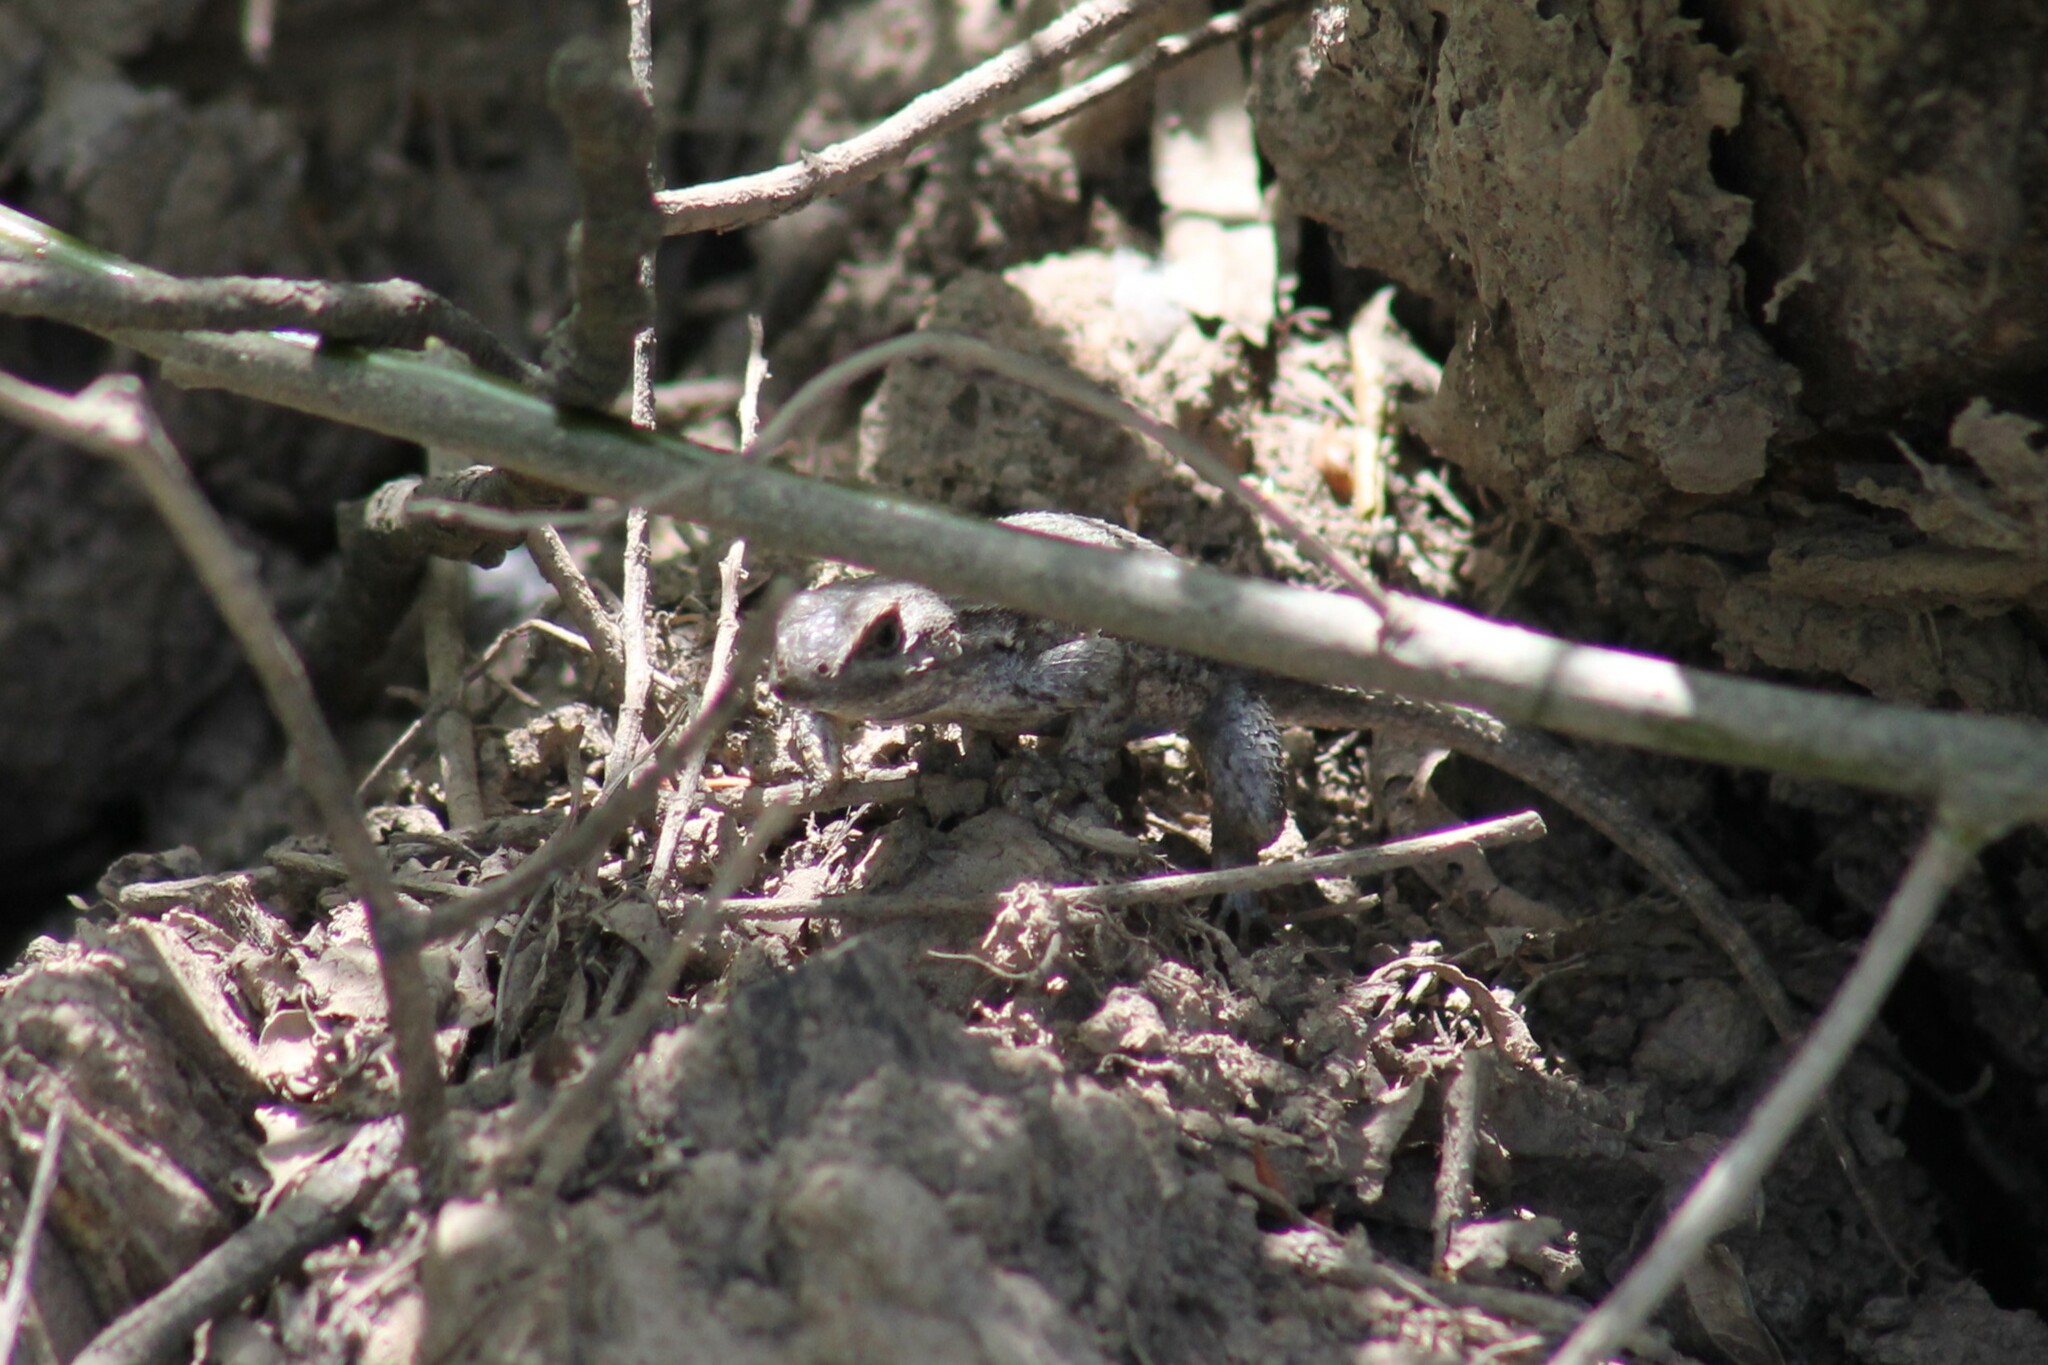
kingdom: Animalia
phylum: Chordata
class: Squamata
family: Phrynosomatidae
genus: Sceloporus
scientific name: Sceloporus occidentalis
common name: Western fence lizard
